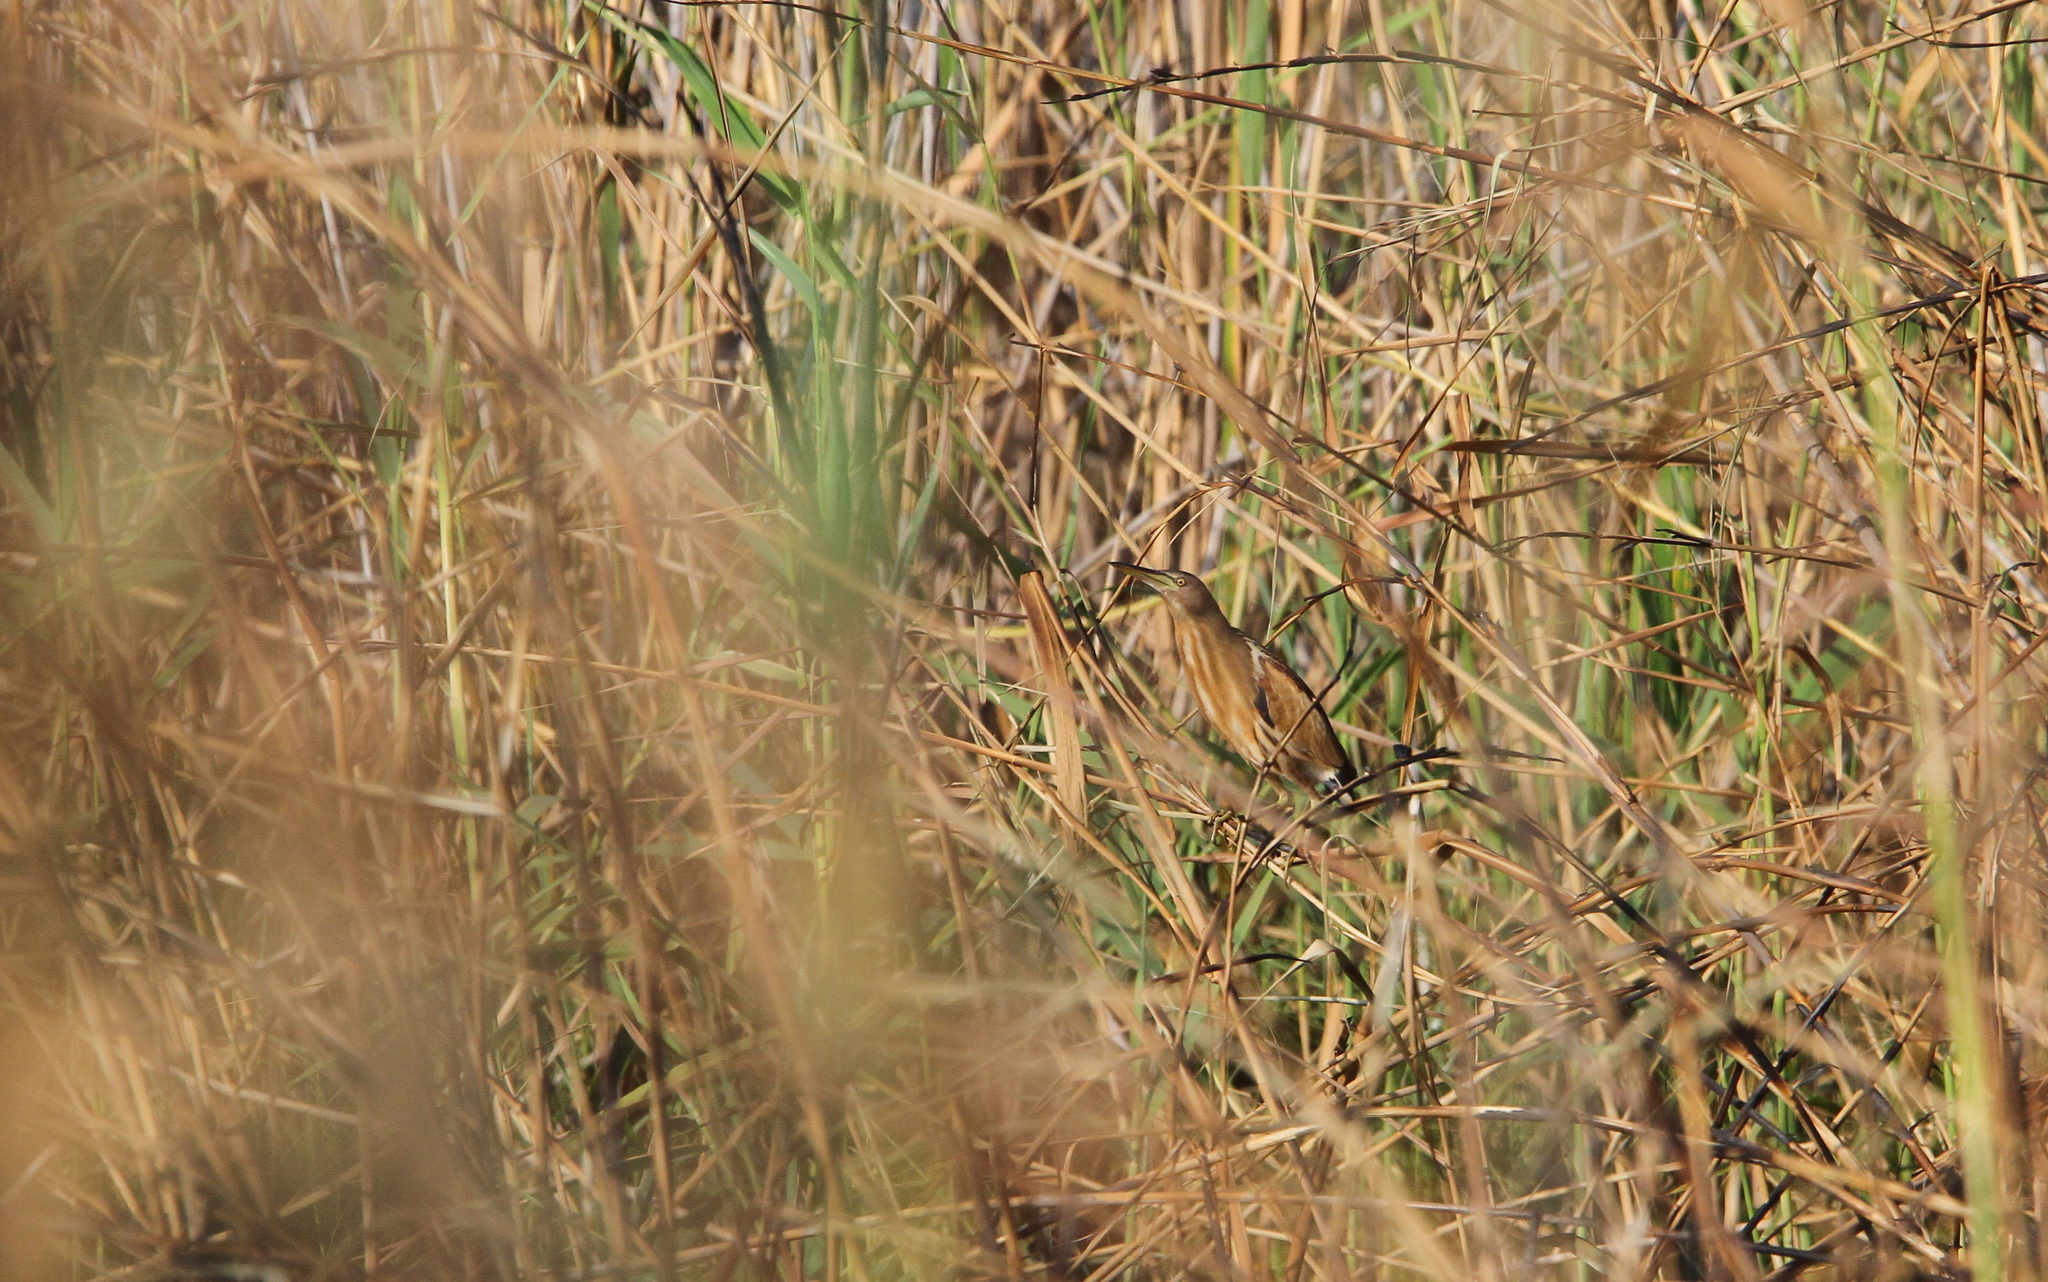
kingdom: Animalia
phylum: Chordata
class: Aves
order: Pelecaniformes
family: Ardeidae
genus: Ixobrychus
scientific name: Ixobrychus minutus
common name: Little bittern
